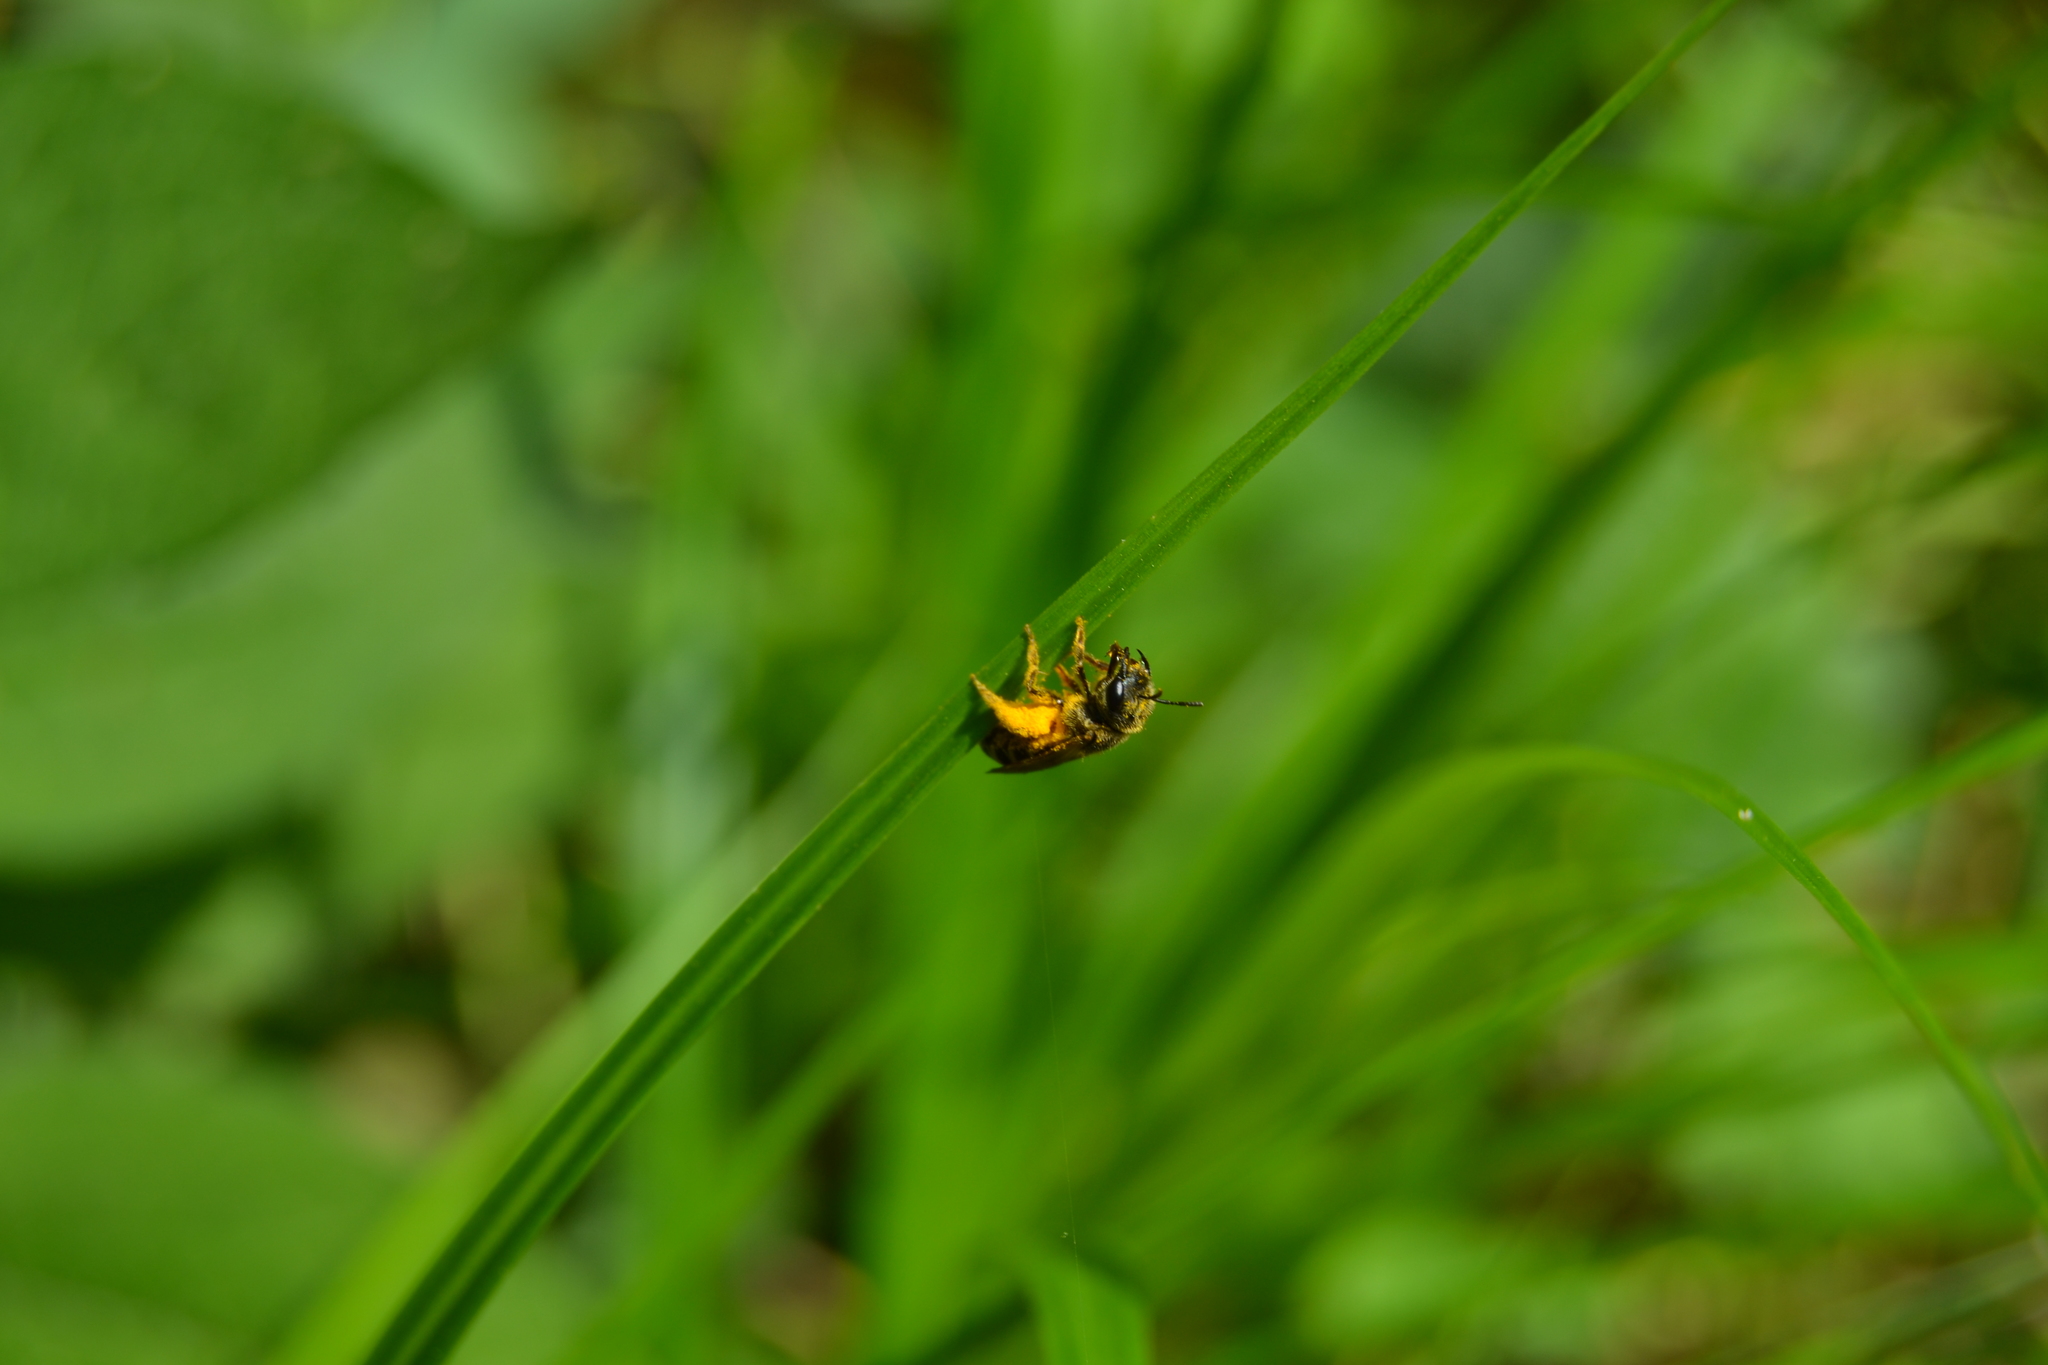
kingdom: Animalia
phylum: Arthropoda
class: Insecta
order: Hymenoptera
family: Halictidae
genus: Halictus
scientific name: Halictus ligatus
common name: Ligated furrow bee
